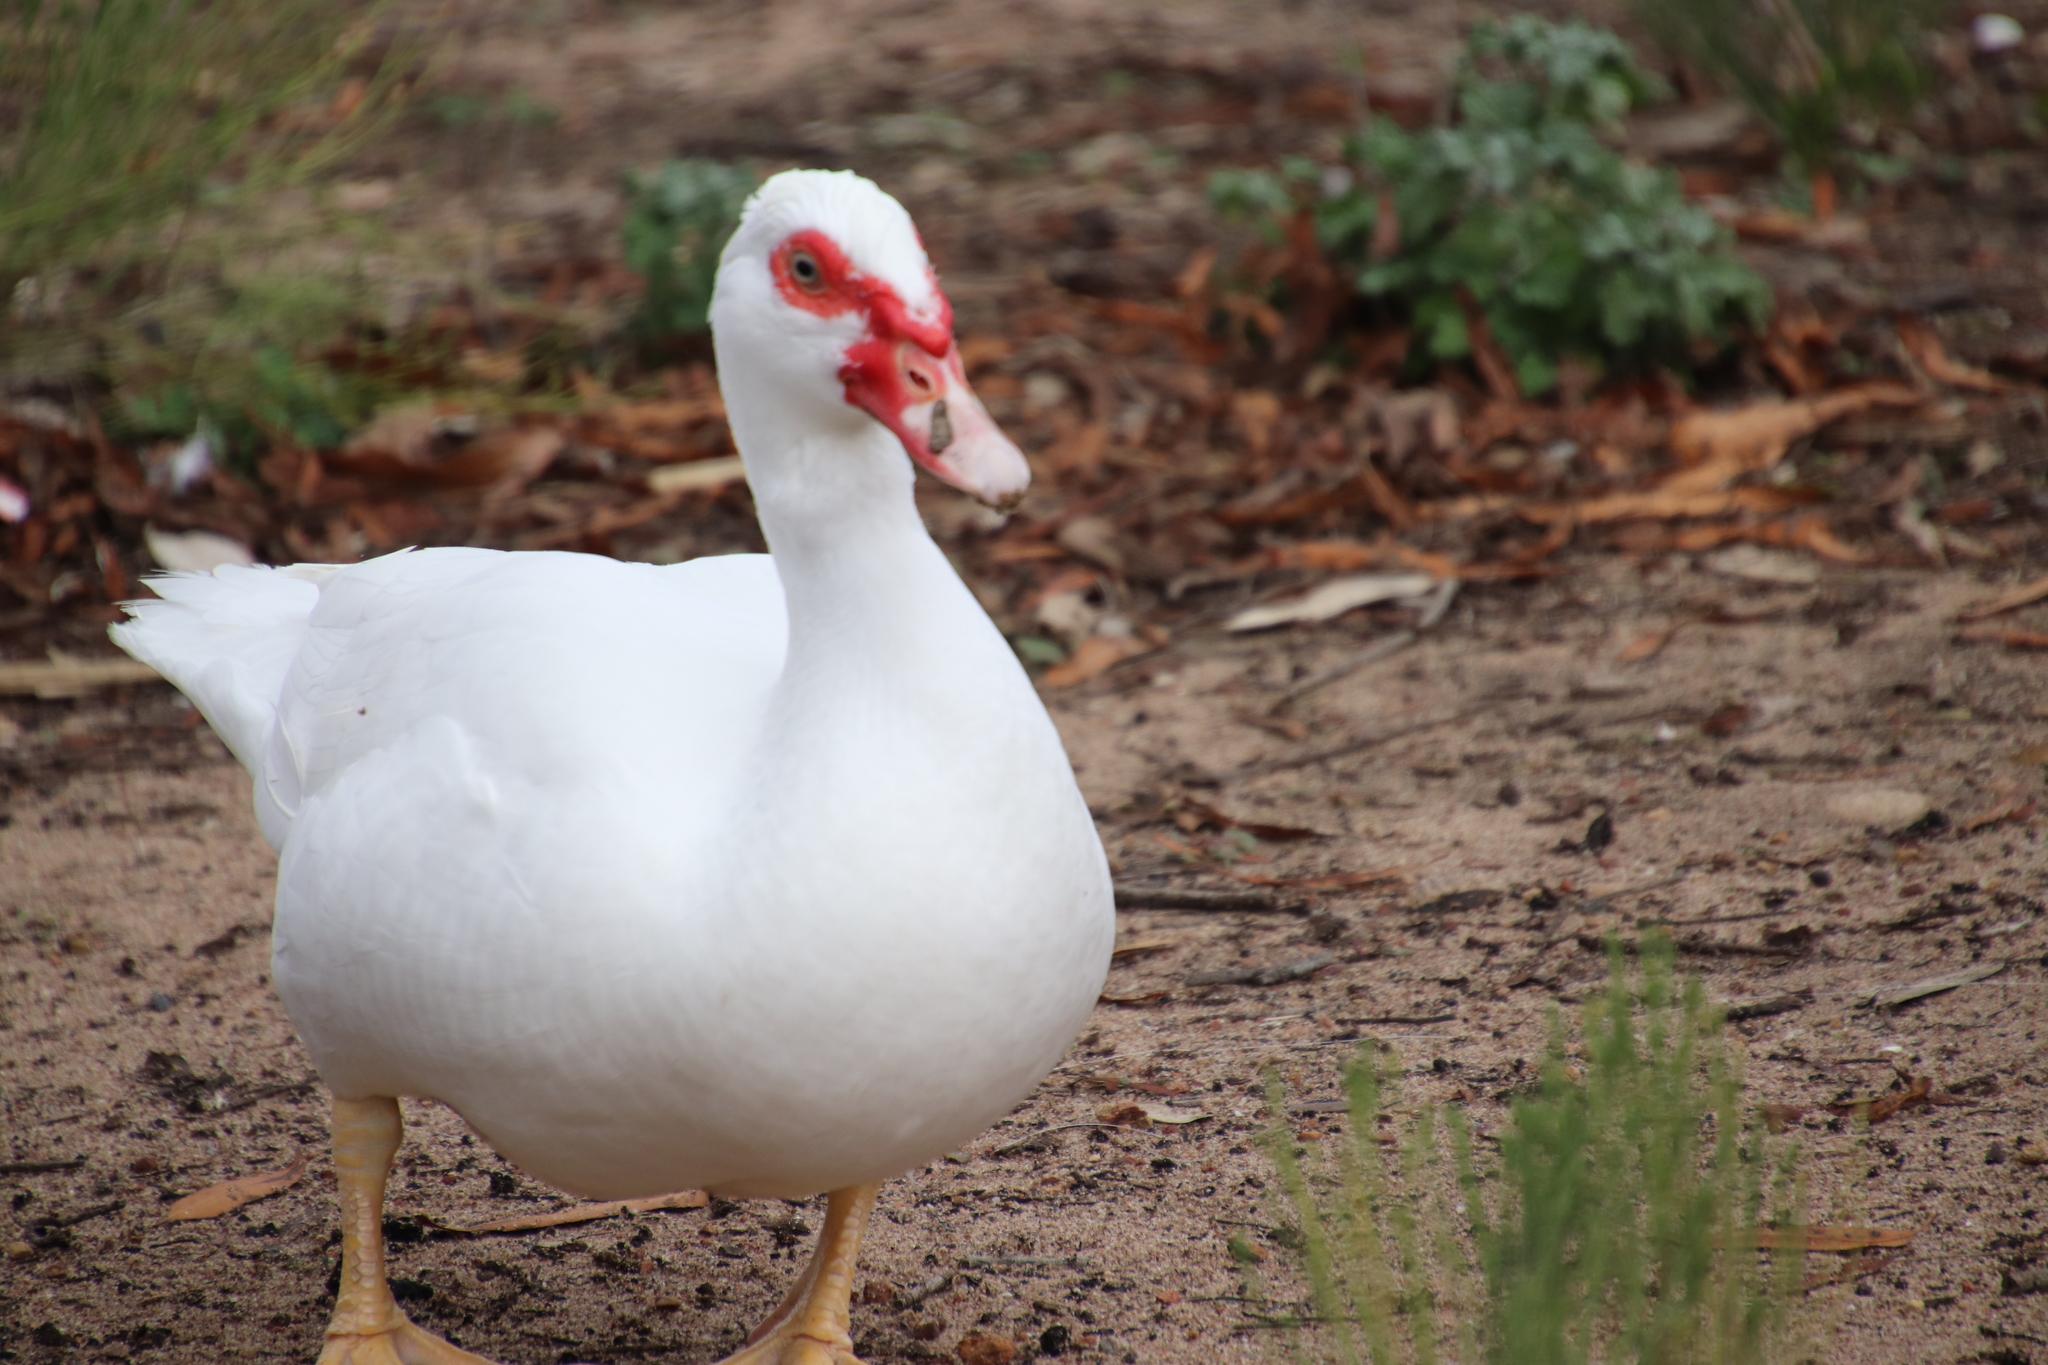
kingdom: Animalia
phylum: Chordata
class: Aves
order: Anseriformes
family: Anatidae
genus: Cairina
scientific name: Cairina moschata
